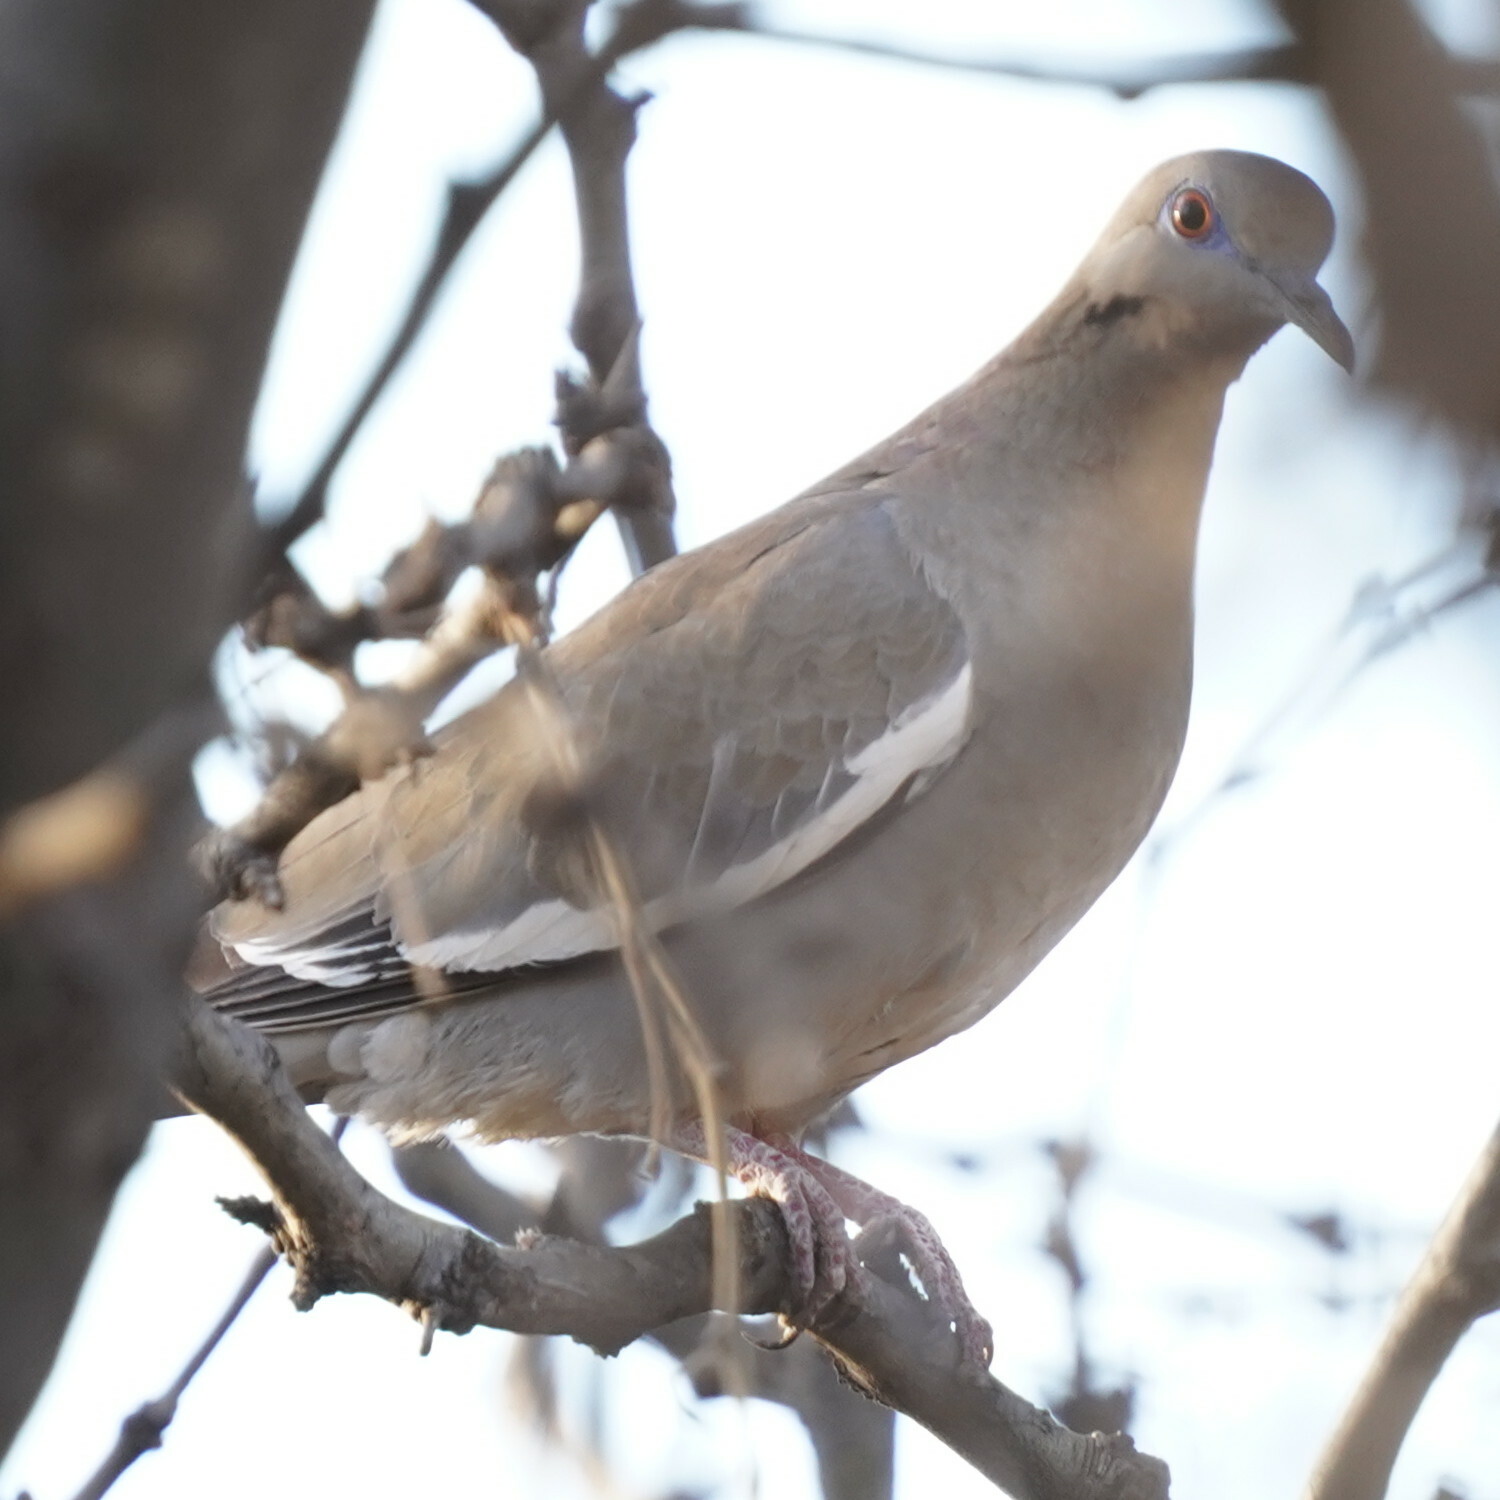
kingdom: Animalia
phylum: Chordata
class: Aves
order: Columbiformes
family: Columbidae
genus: Zenaida
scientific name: Zenaida asiatica
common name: White-winged dove
